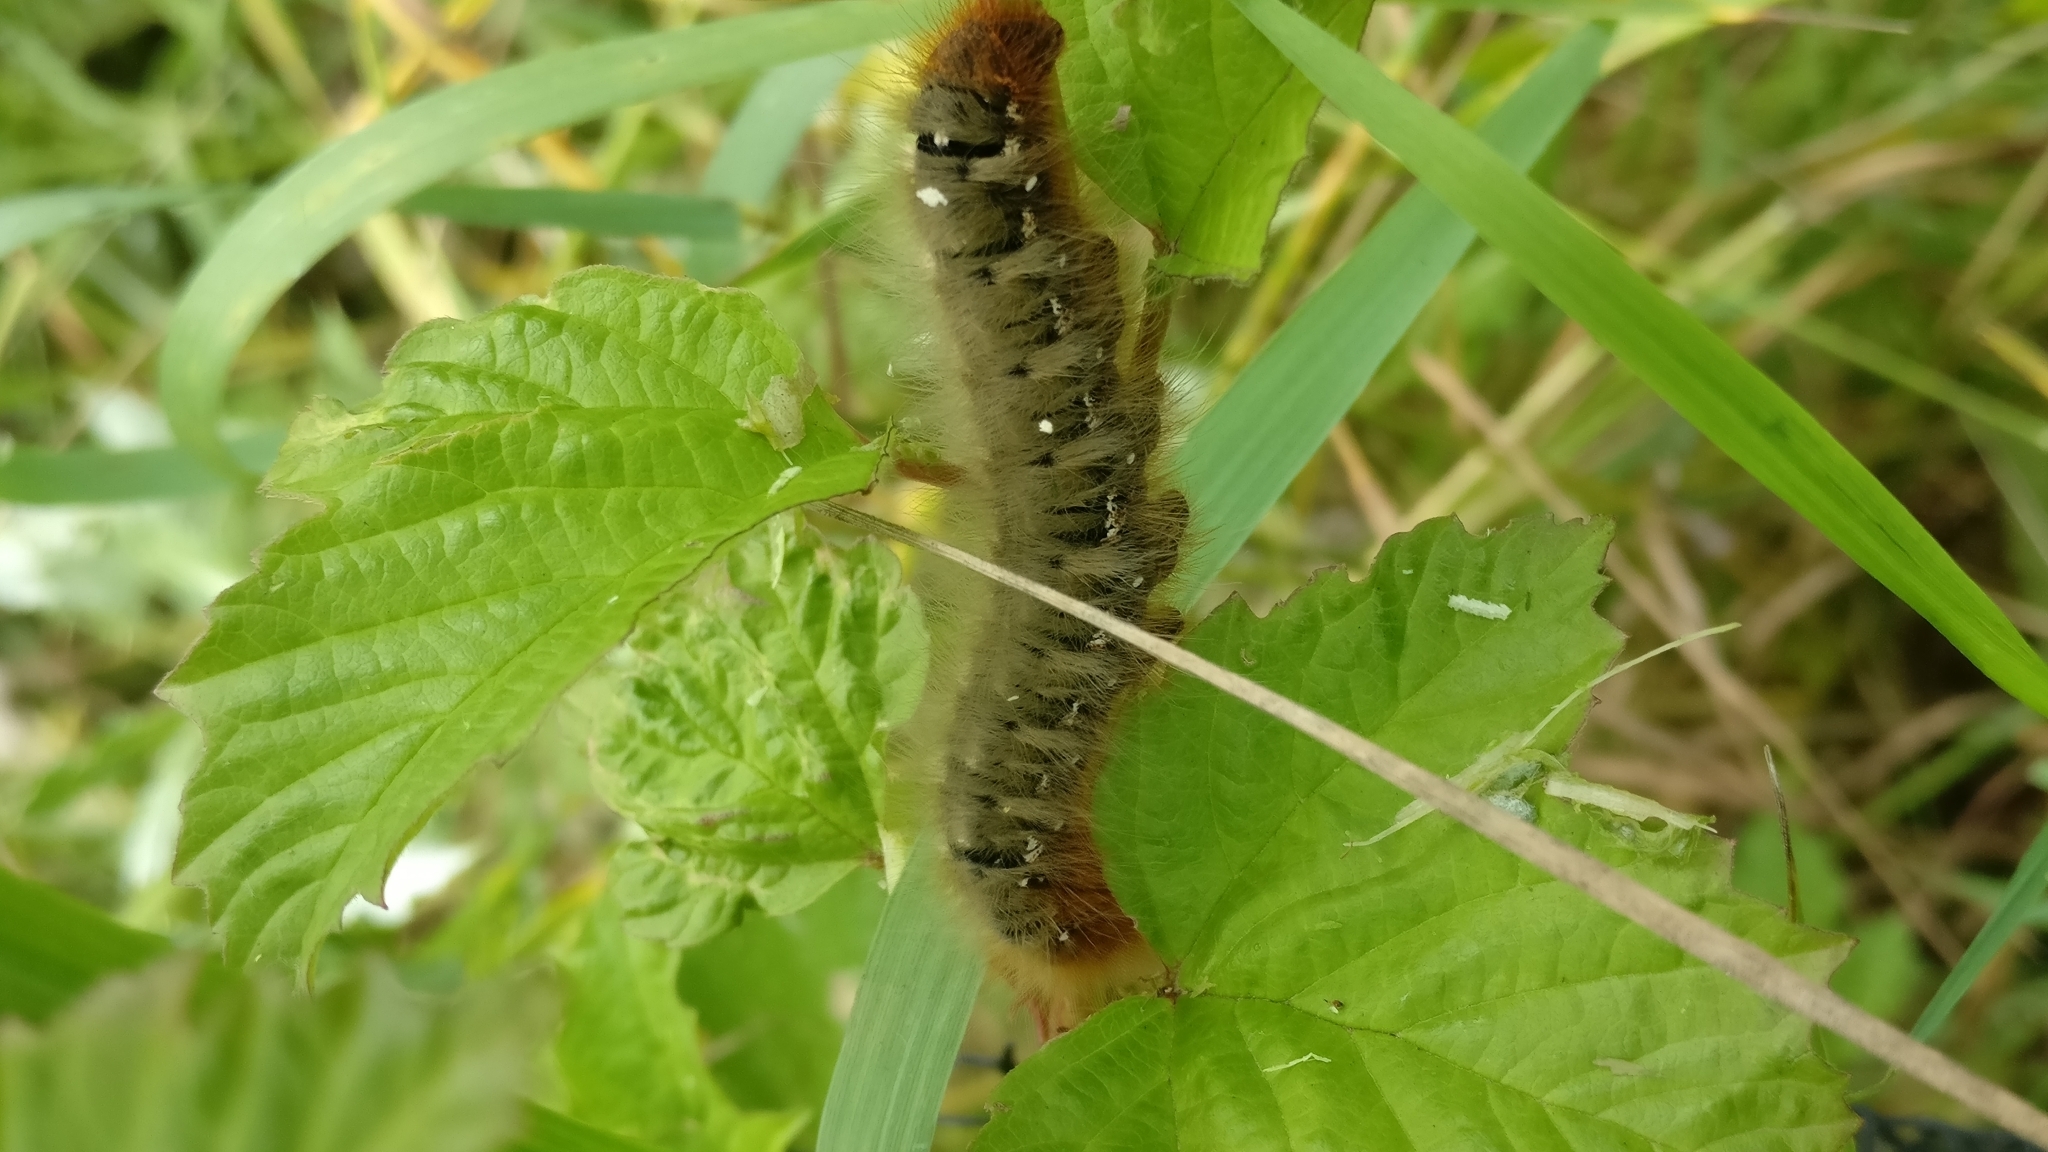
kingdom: Animalia
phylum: Arthropoda
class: Insecta
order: Lepidoptera
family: Lasiocampidae
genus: Lasiocampa
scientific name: Lasiocampa quercus
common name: Oak eggar
